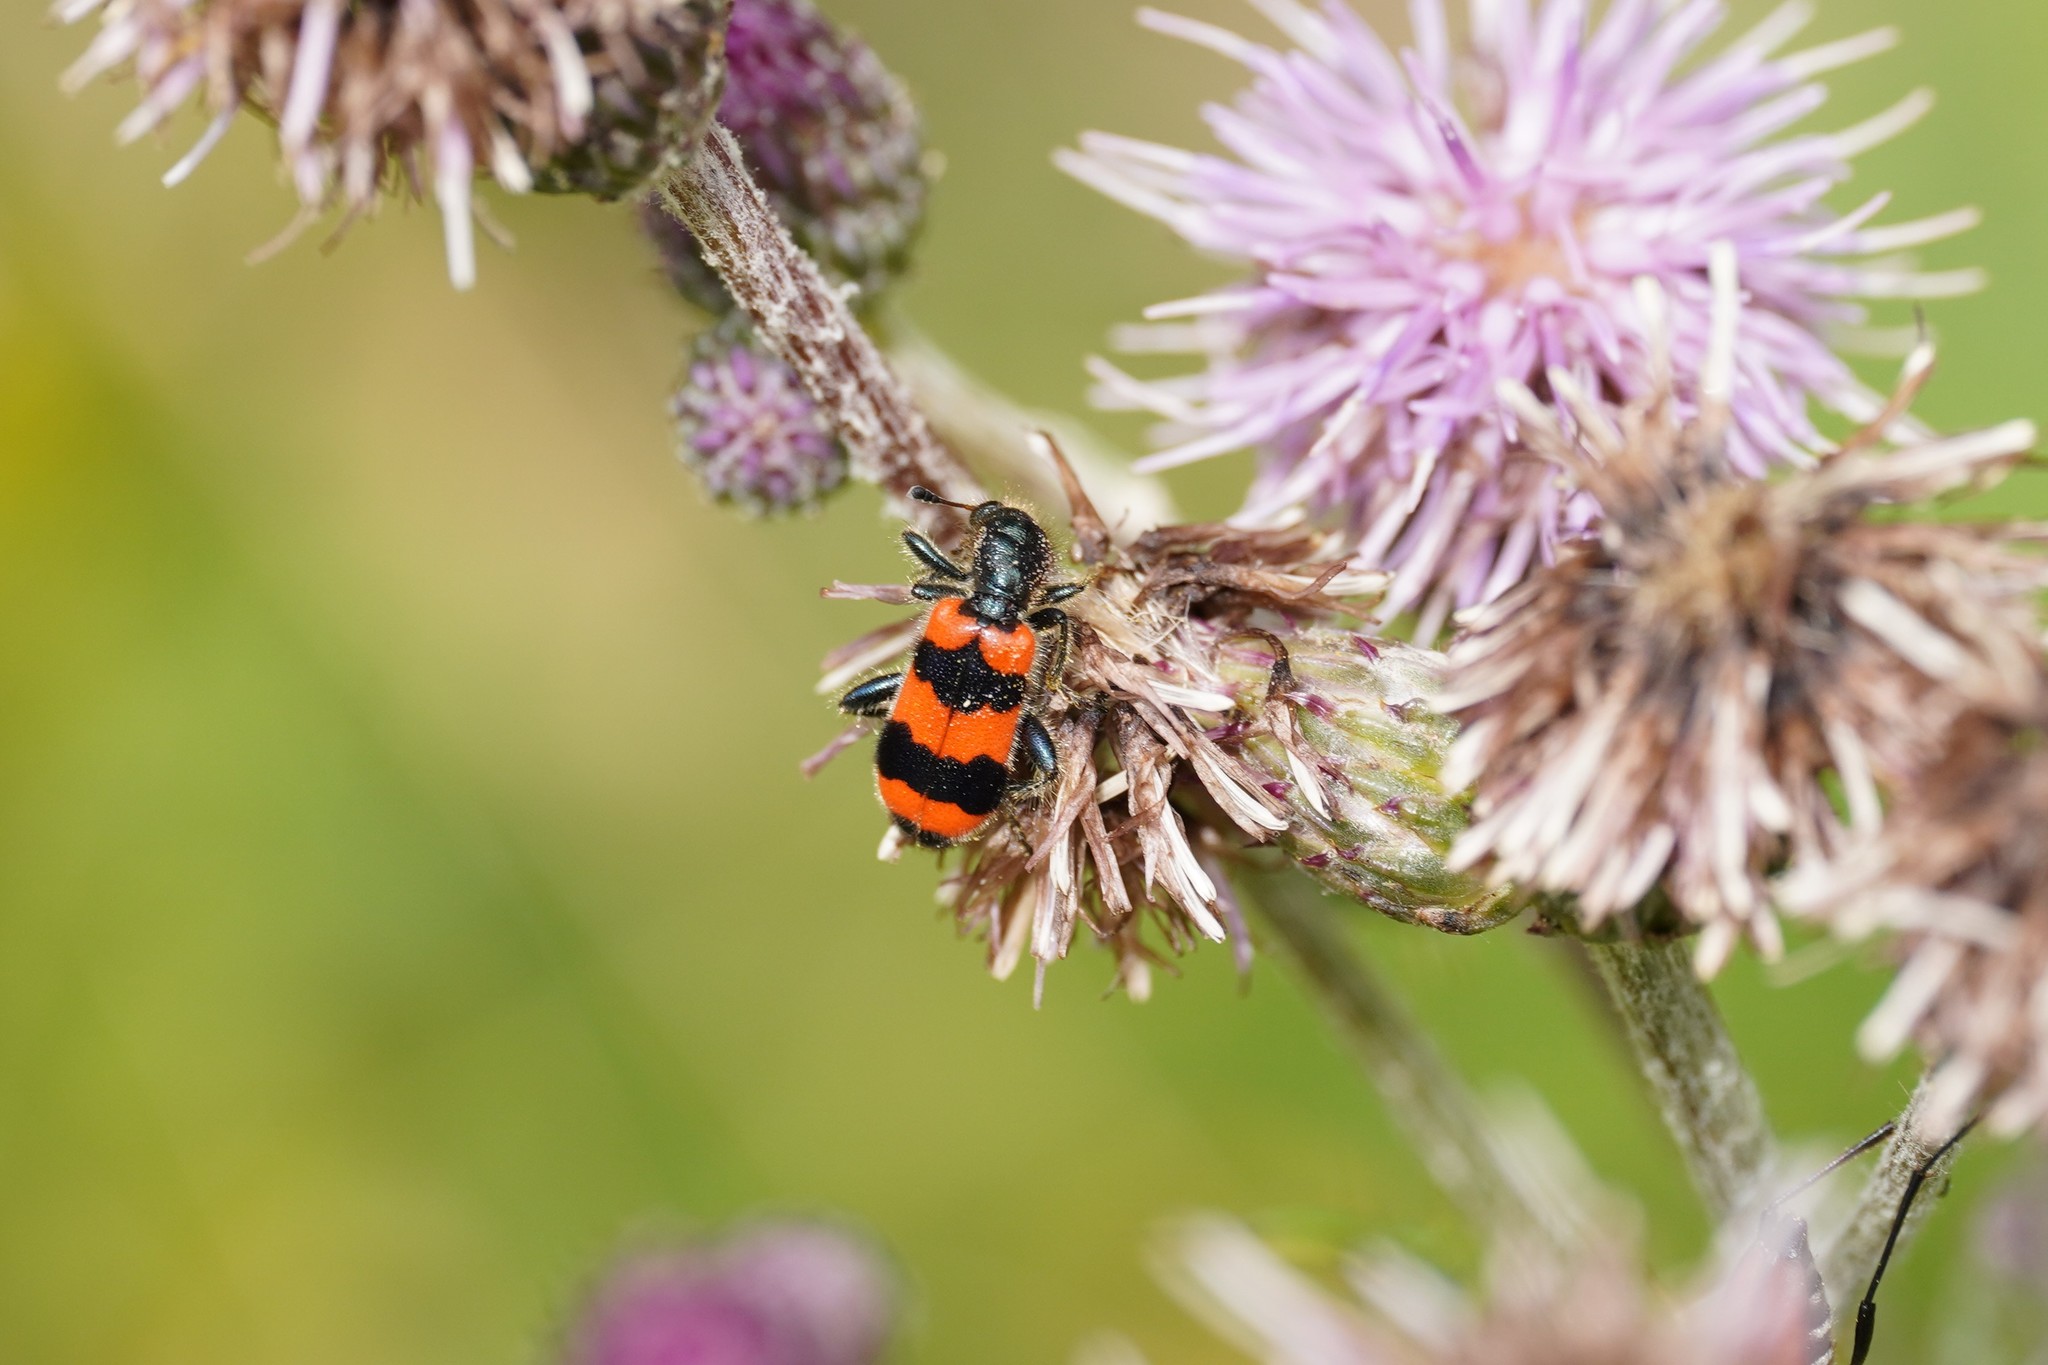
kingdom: Animalia
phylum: Arthropoda
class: Insecta
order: Coleoptera
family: Cleridae
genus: Trichodes
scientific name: Trichodes apiarius
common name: Bee-eating beetle
